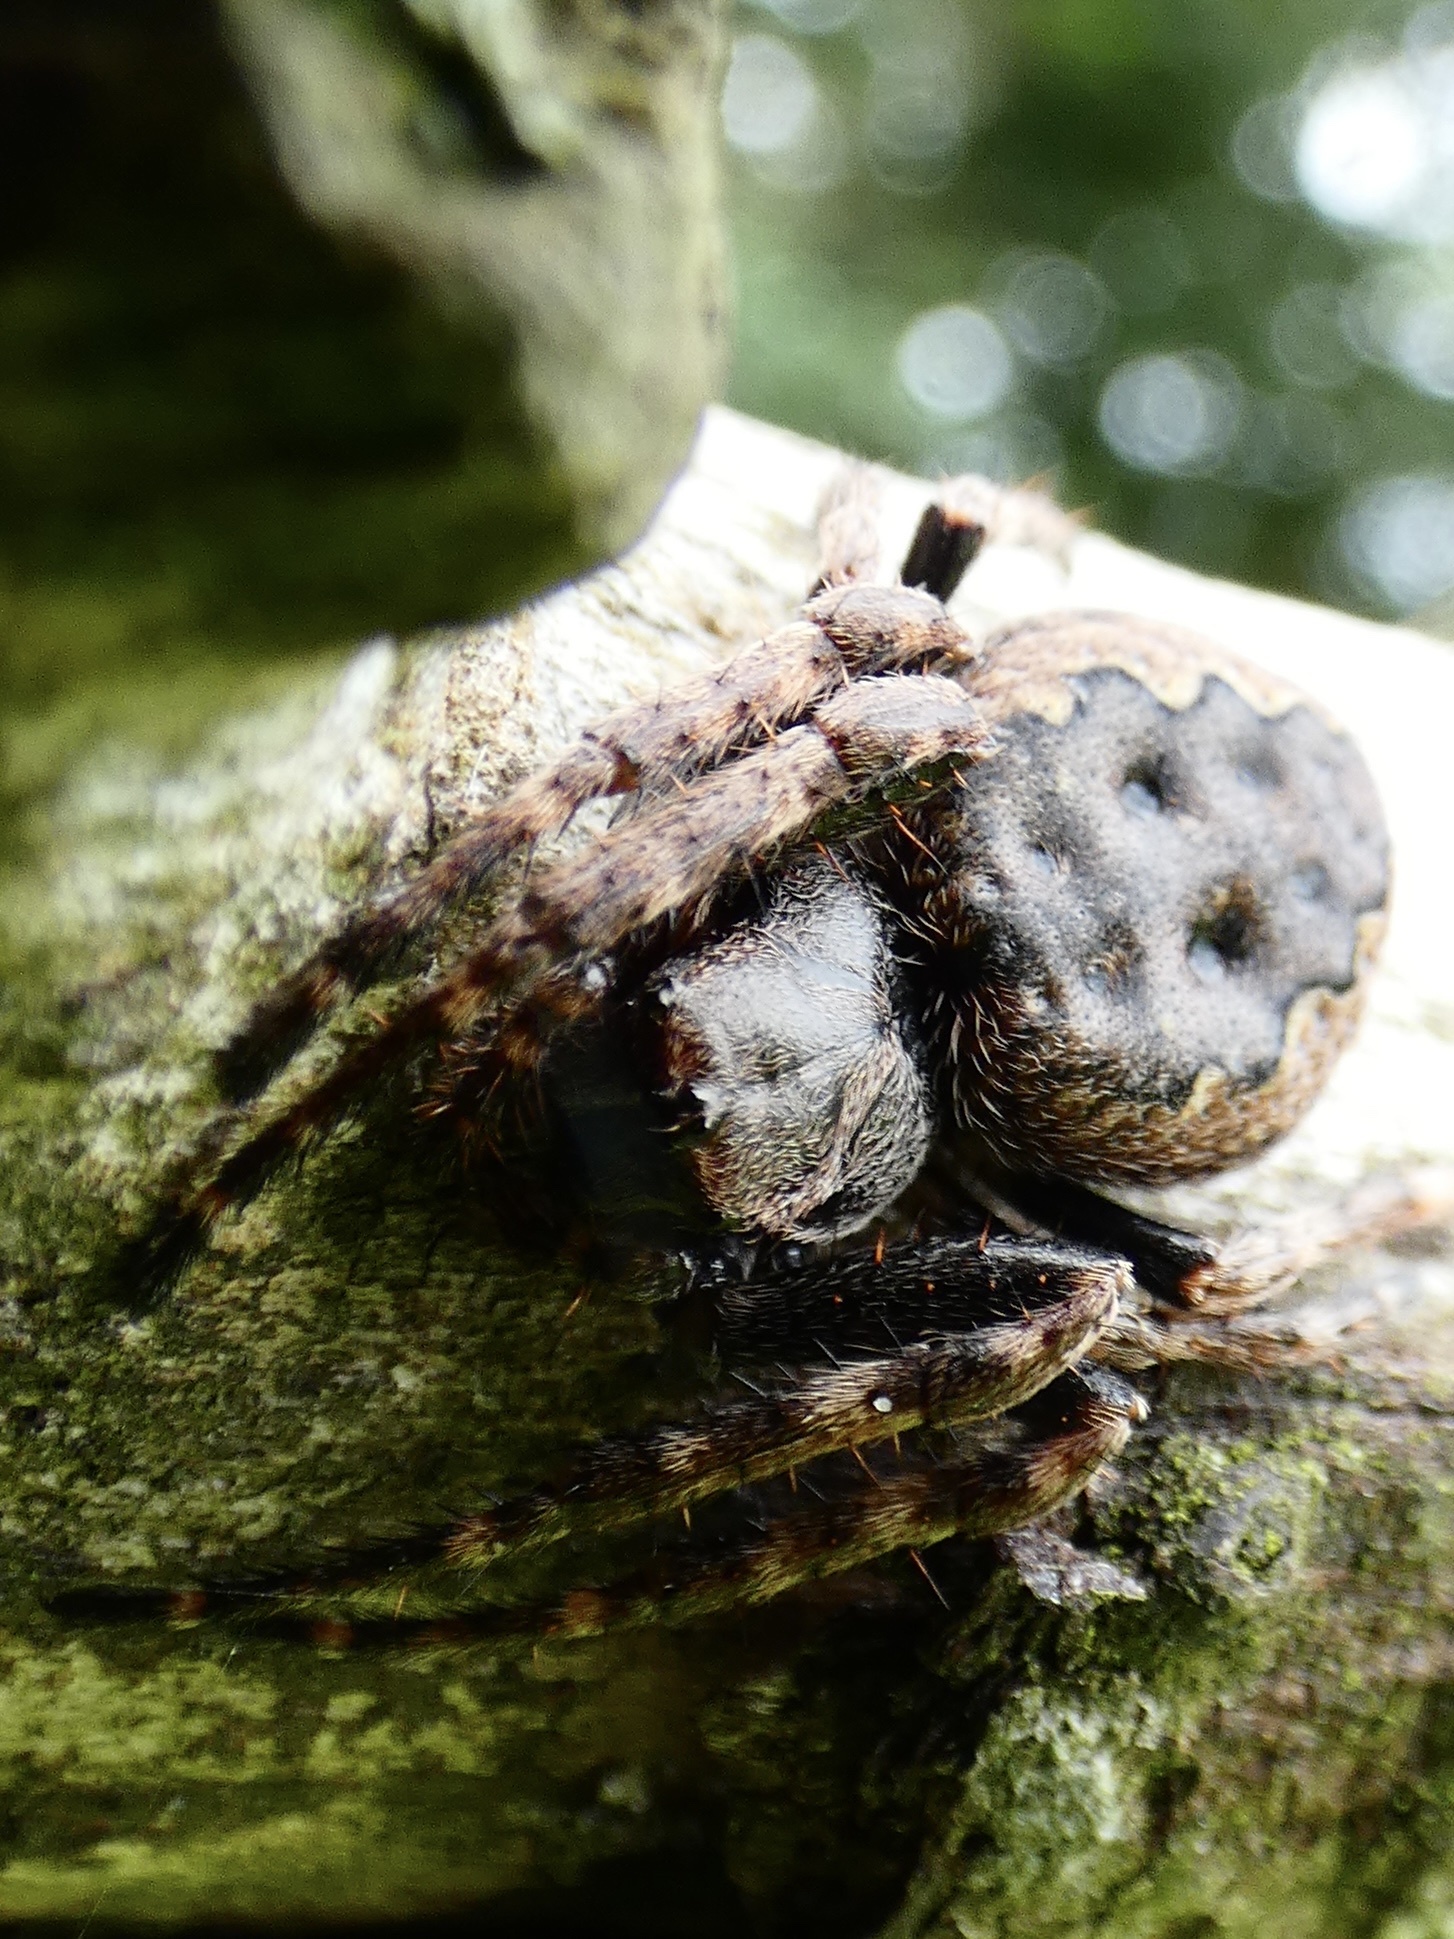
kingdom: Animalia
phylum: Arthropoda
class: Arachnida
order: Araneae
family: Araneidae
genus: Nuctenea
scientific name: Nuctenea umbratica
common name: Toad spider
